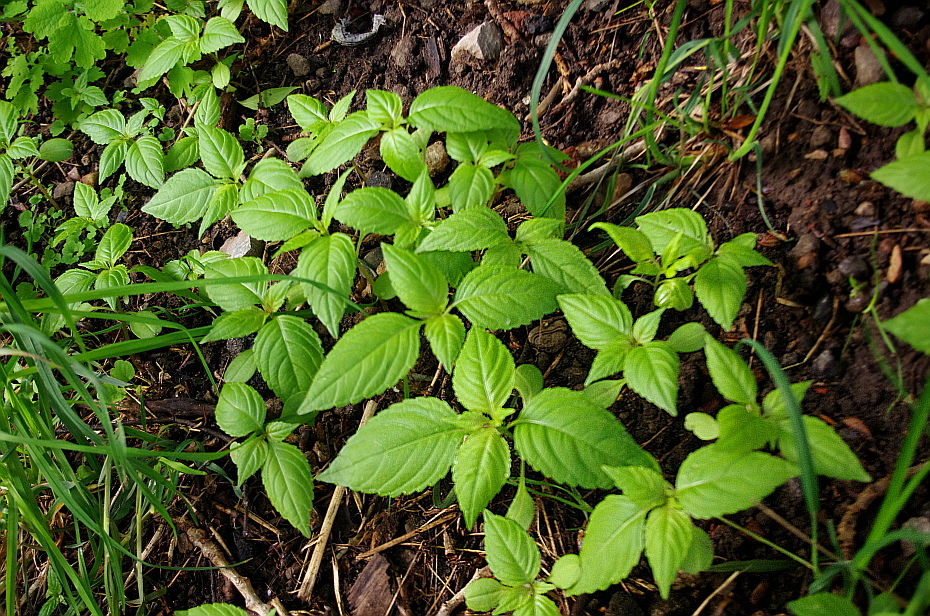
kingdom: Plantae
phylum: Tracheophyta
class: Magnoliopsida
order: Ericales
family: Balsaminaceae
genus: Impatiens
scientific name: Impatiens parviflora
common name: Small balsam
